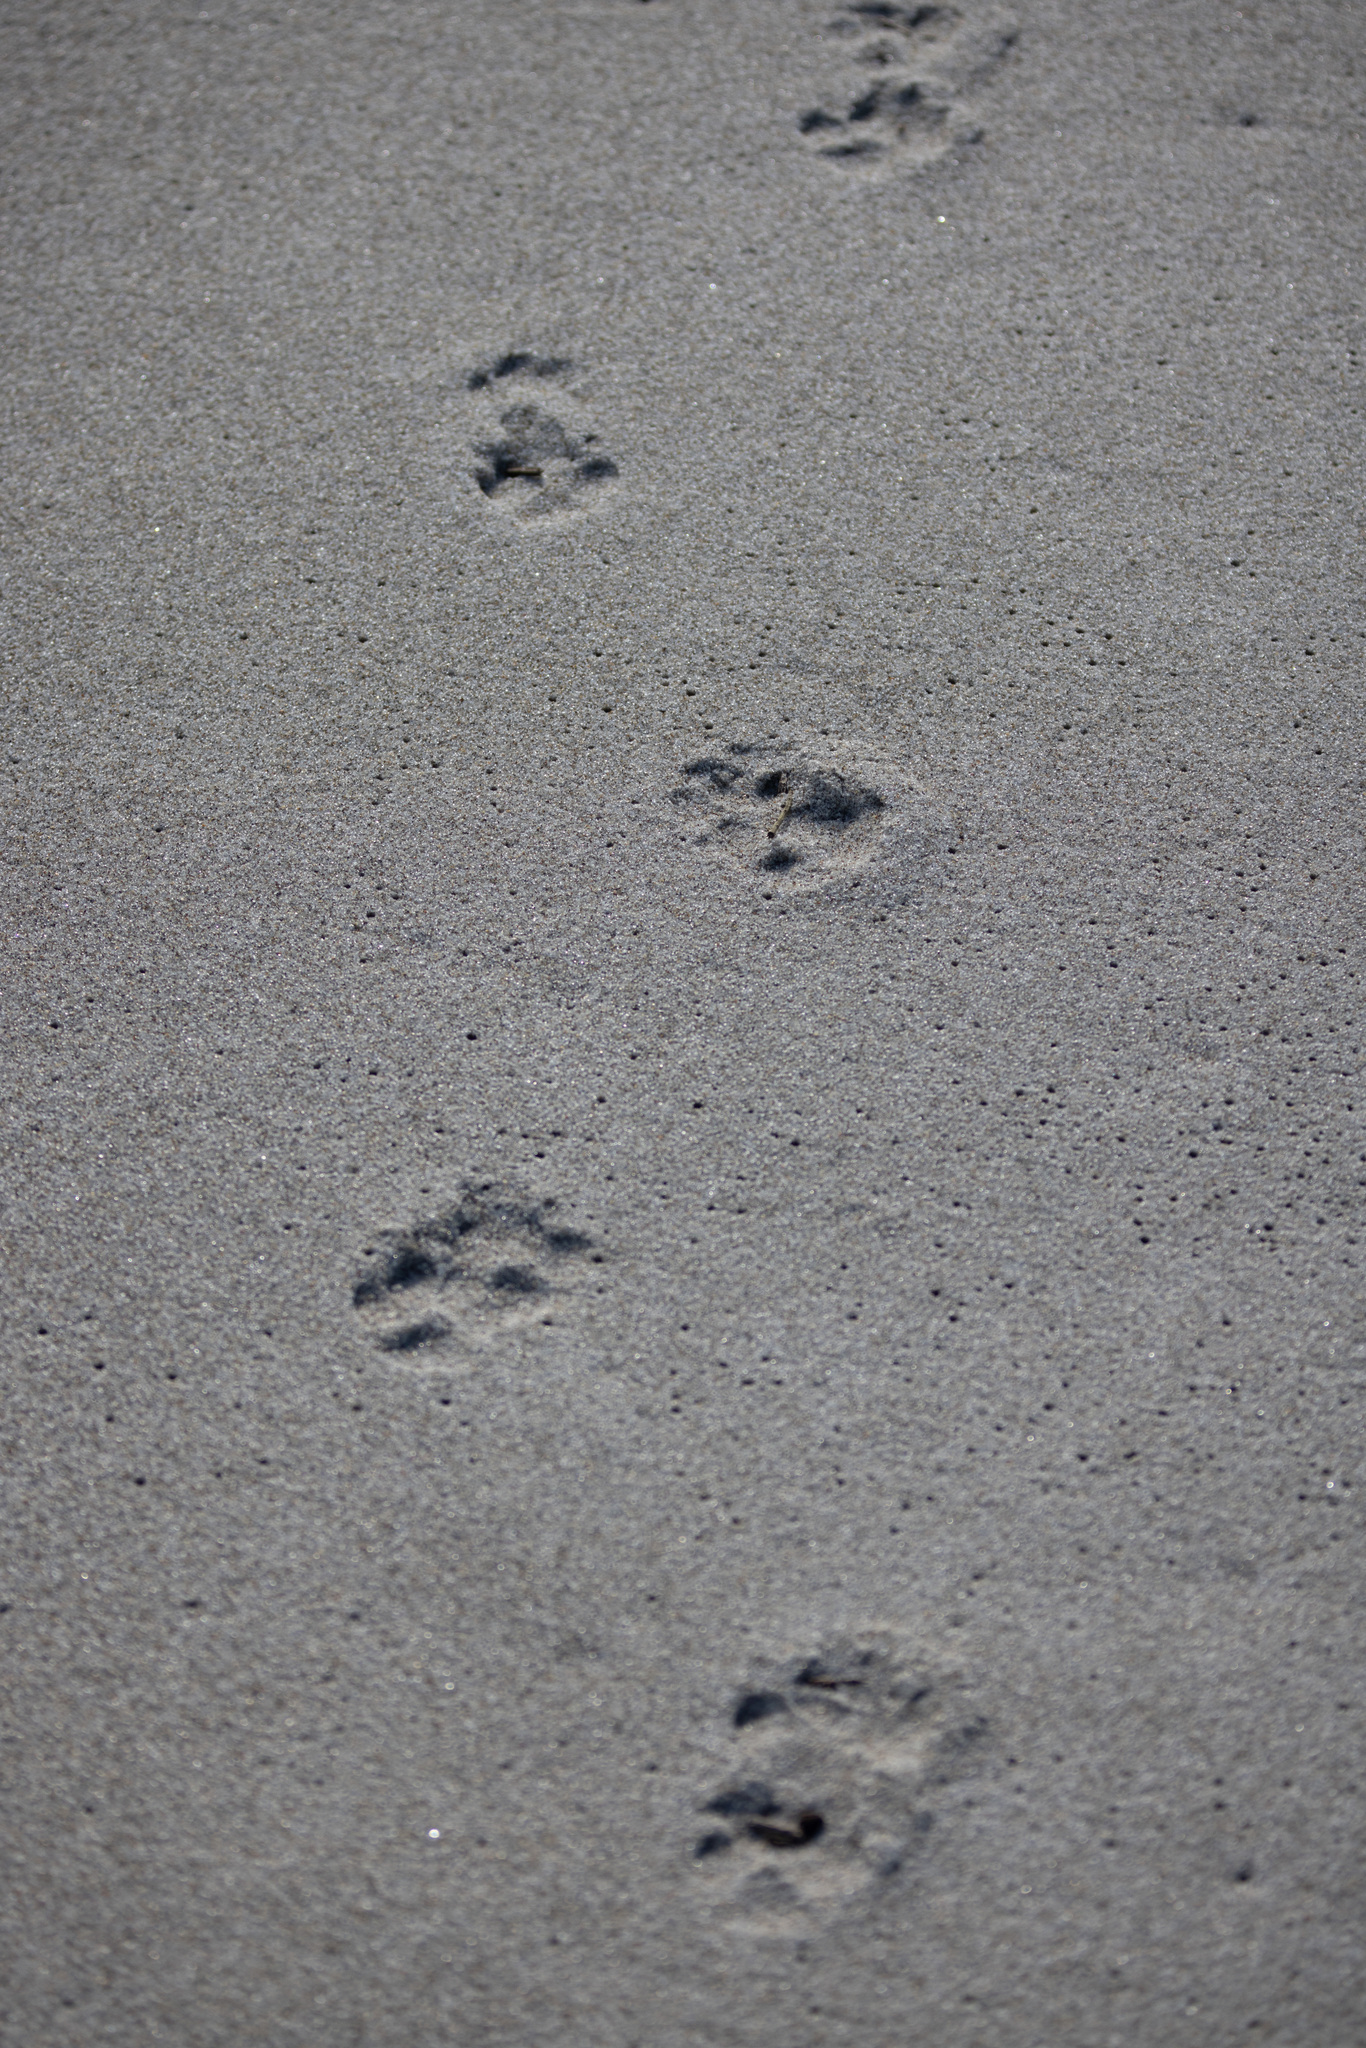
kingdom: Animalia
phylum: Chordata
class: Mammalia
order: Carnivora
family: Canidae
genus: Canis
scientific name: Canis lupus
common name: Gray wolf
